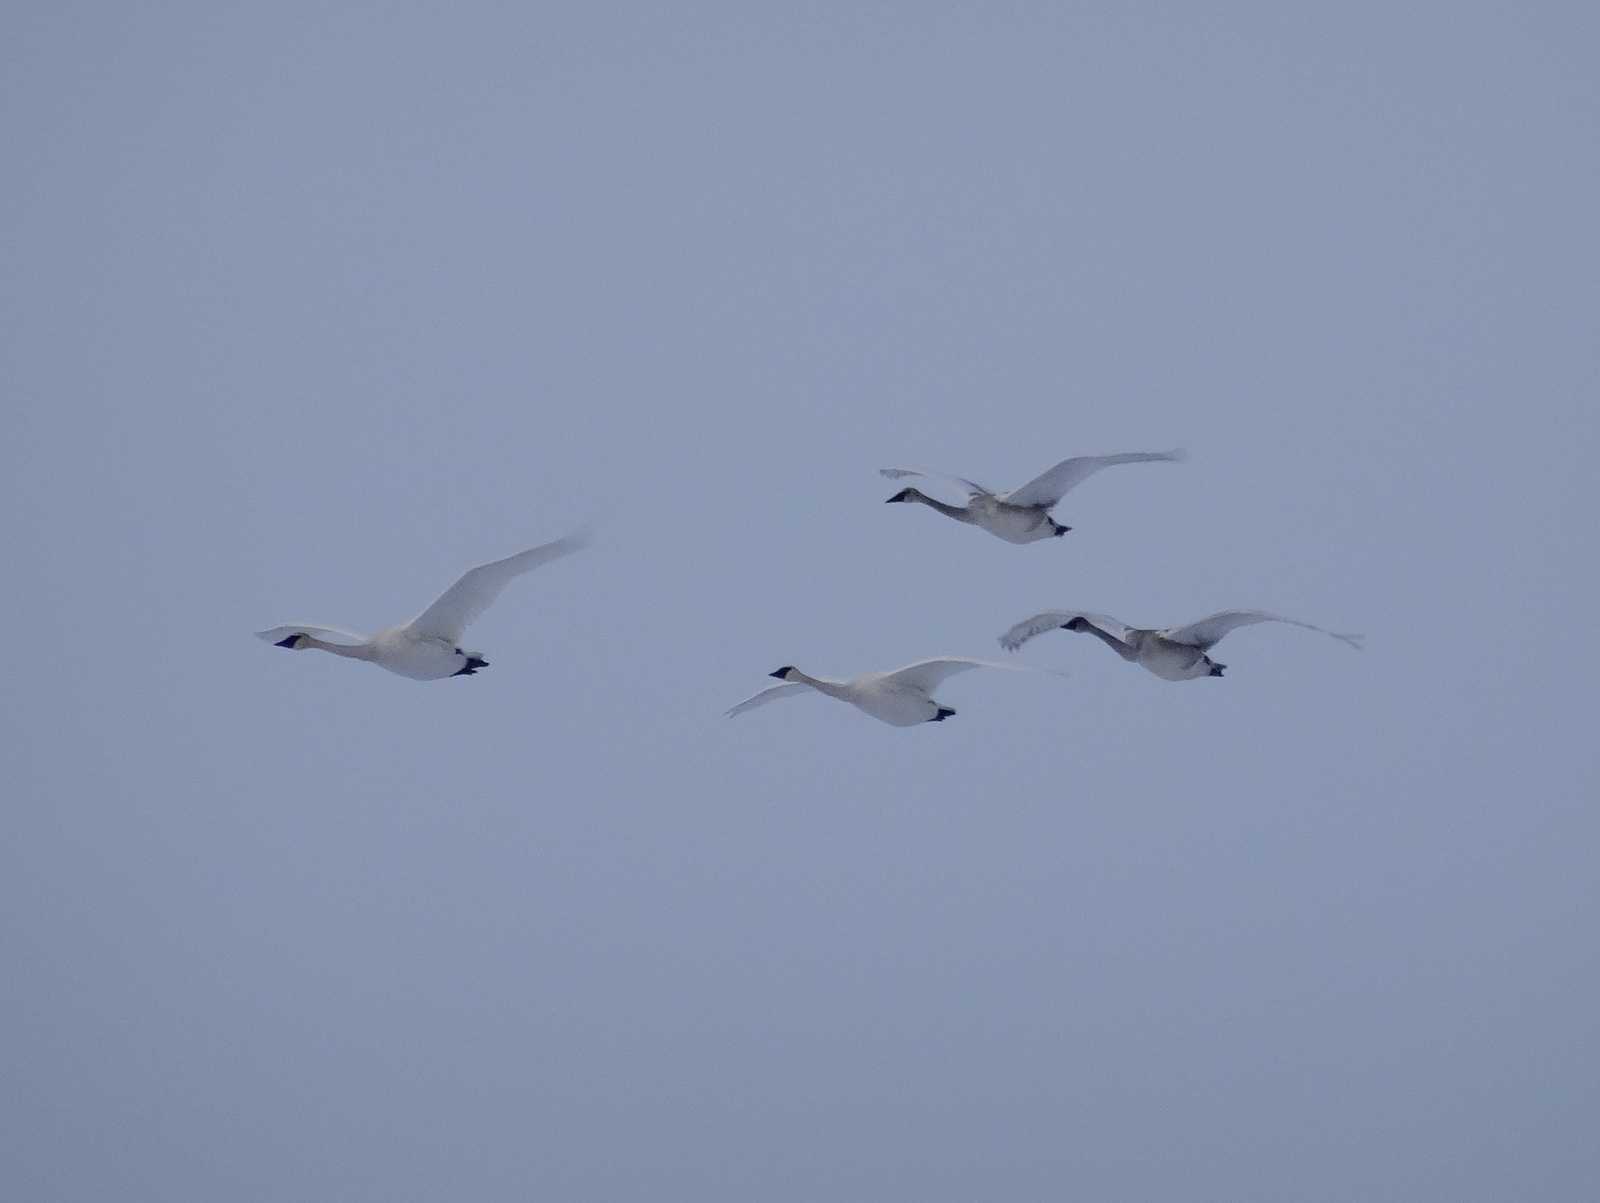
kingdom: Animalia
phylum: Chordata
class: Aves
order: Anseriformes
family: Anatidae
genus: Cygnus
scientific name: Cygnus buccinator
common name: Trumpeter swan
